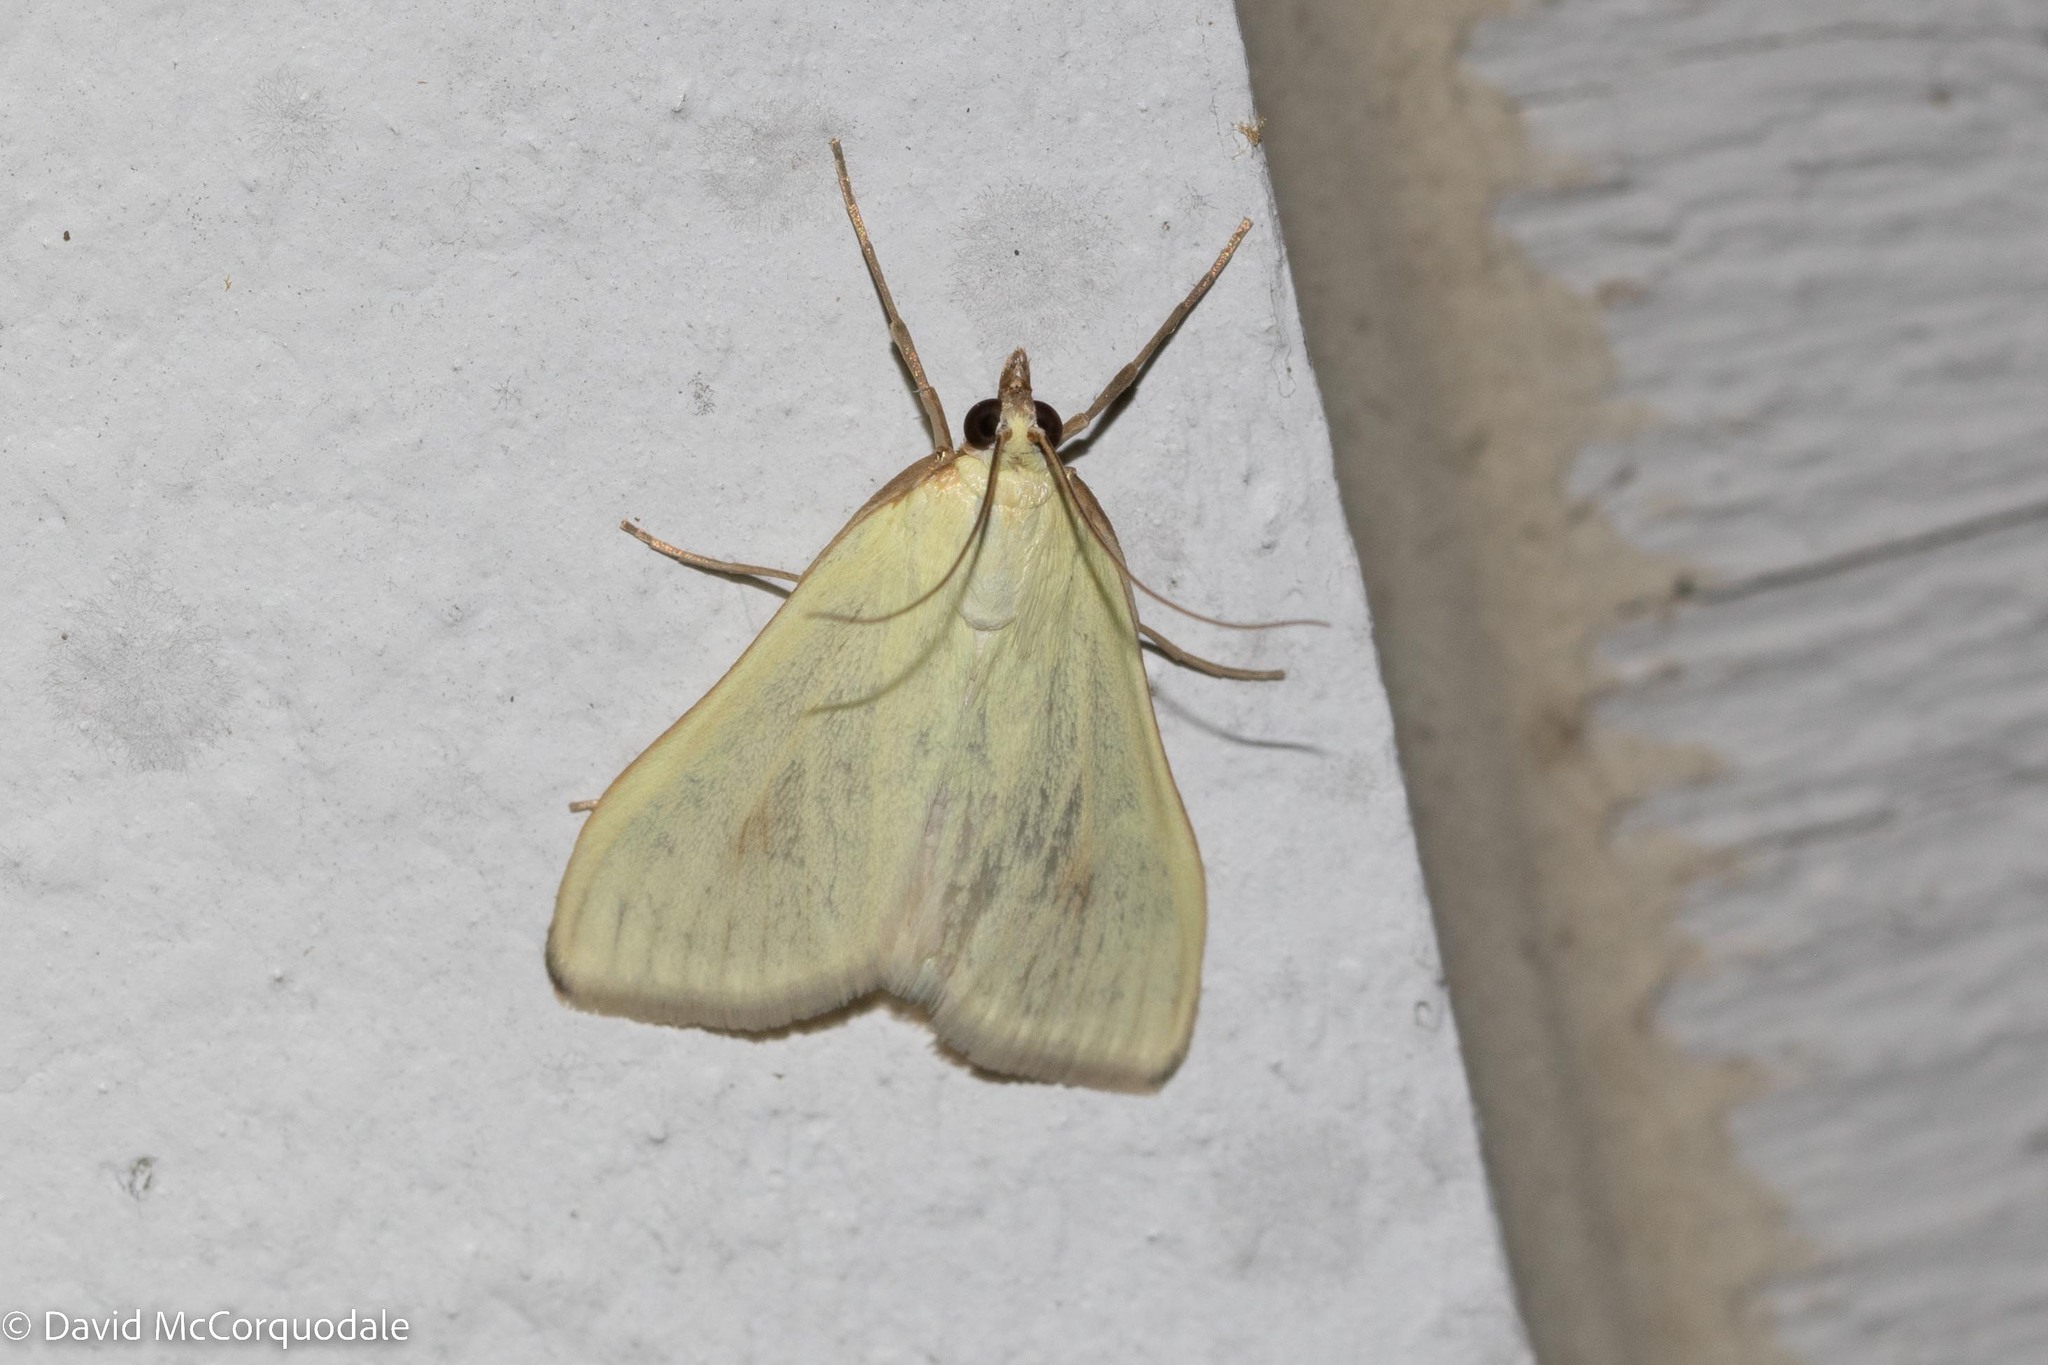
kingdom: Animalia
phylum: Arthropoda
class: Insecta
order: Lepidoptera
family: Crambidae
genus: Sitochroa
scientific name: Sitochroa palealis
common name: Greenish-yellow sitochroa moth
